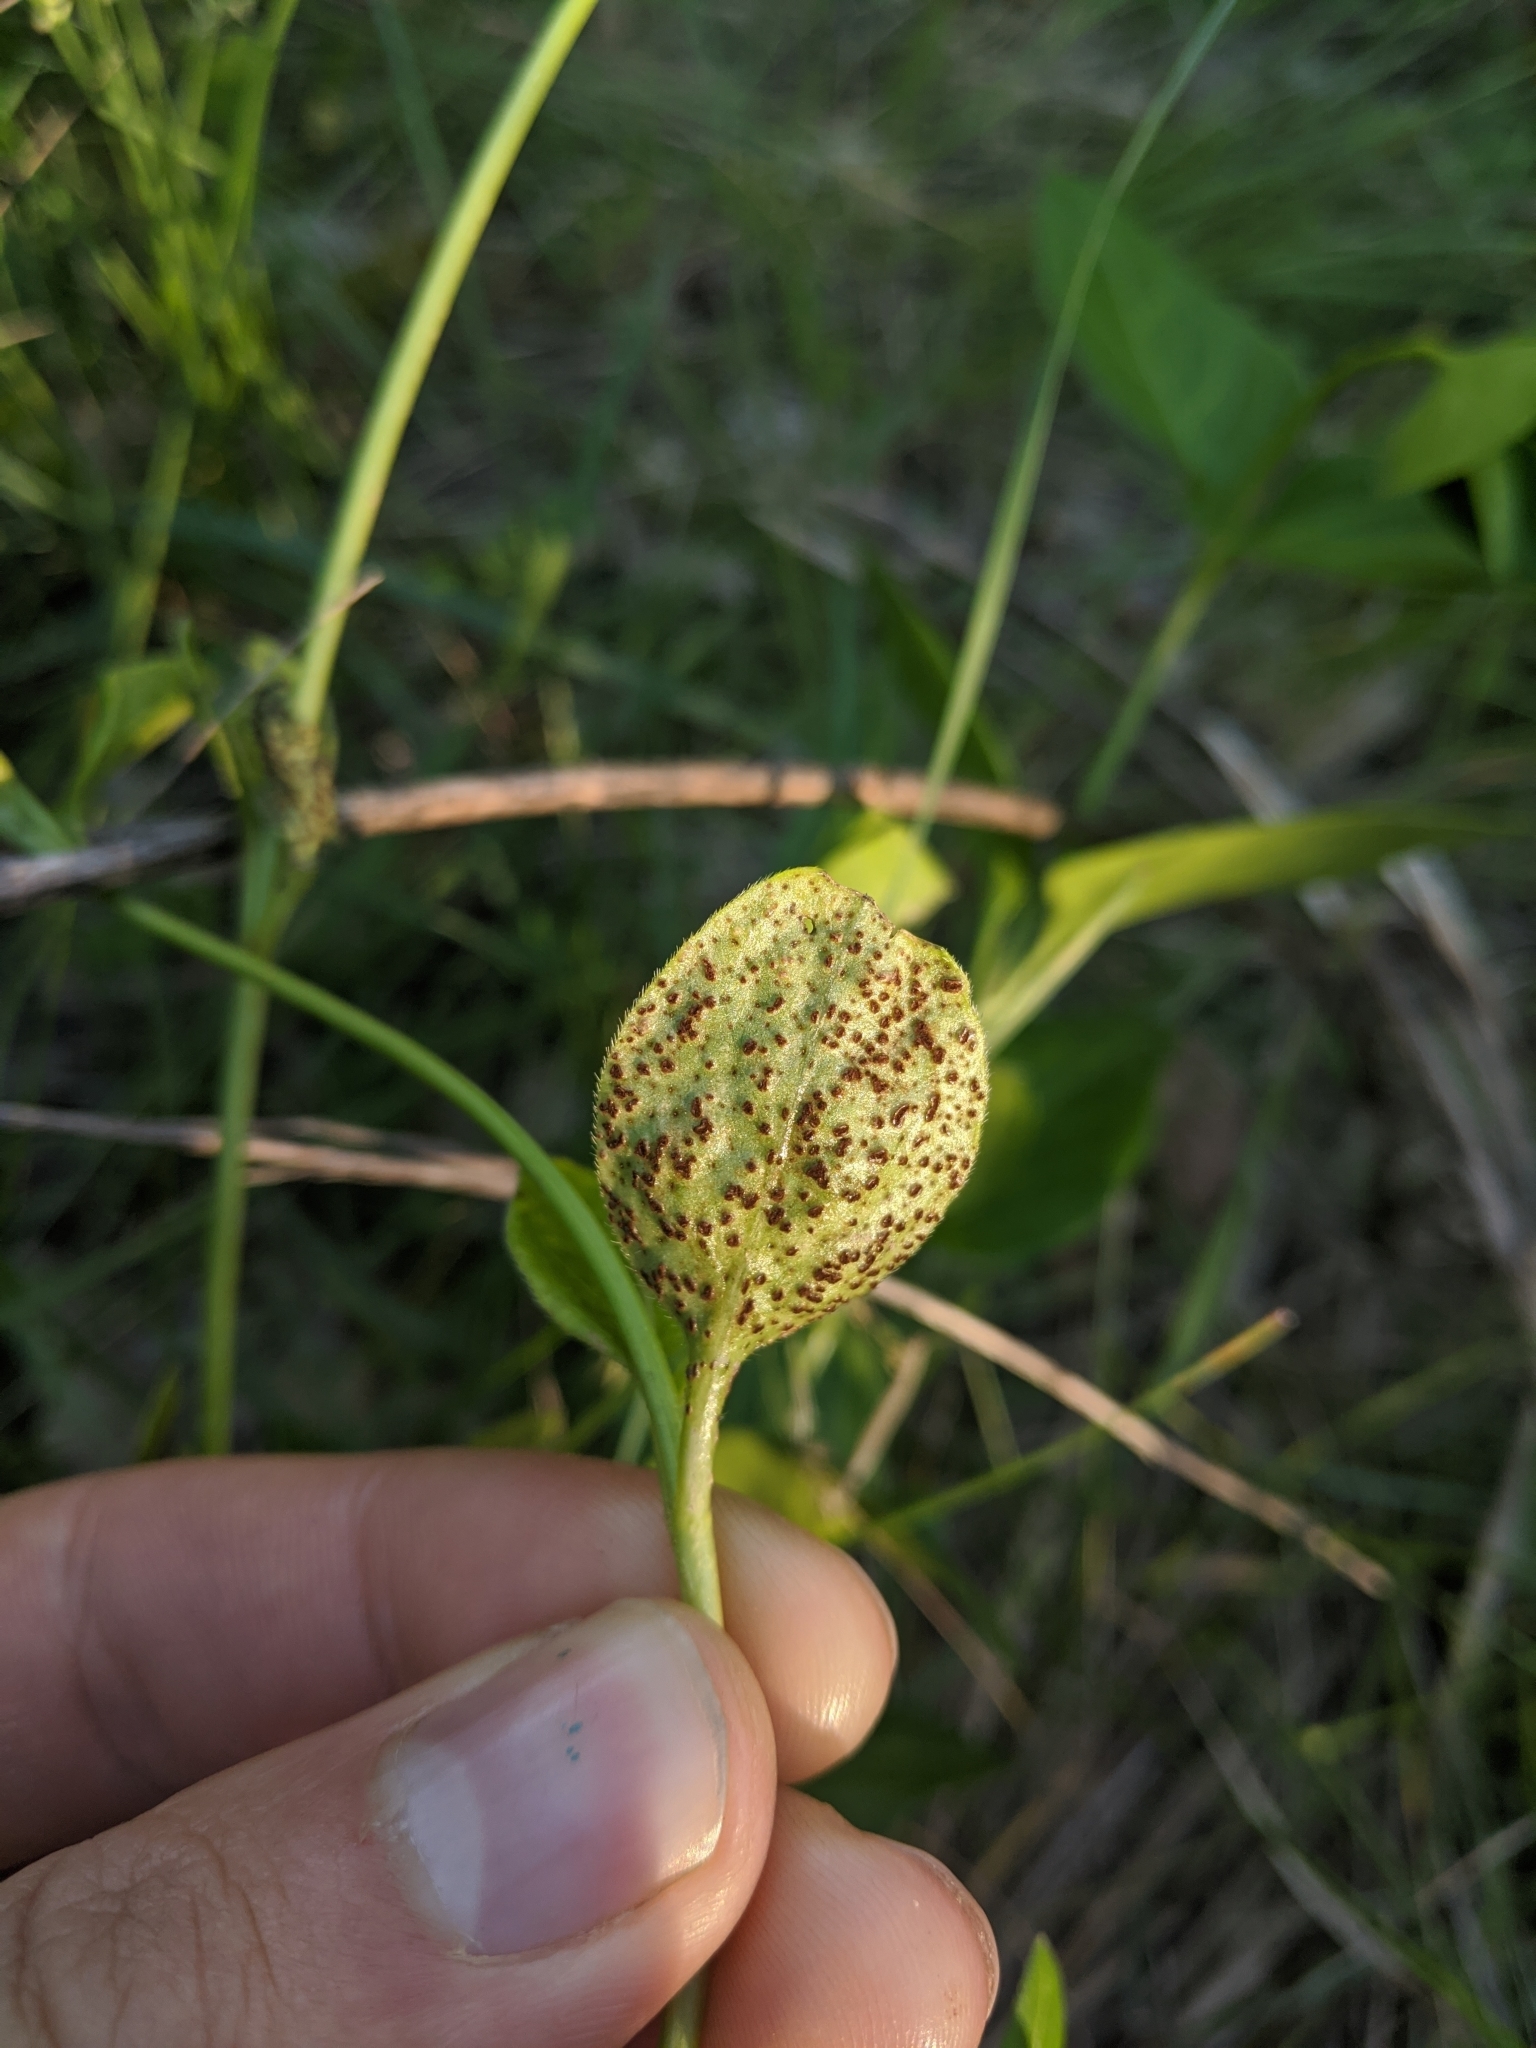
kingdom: Fungi
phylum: Basidiomycota
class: Pucciniomycetes
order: Pucciniales
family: Pucciniaceae
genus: Puccinia
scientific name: Puccinia vincae
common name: Periwinkle rust
